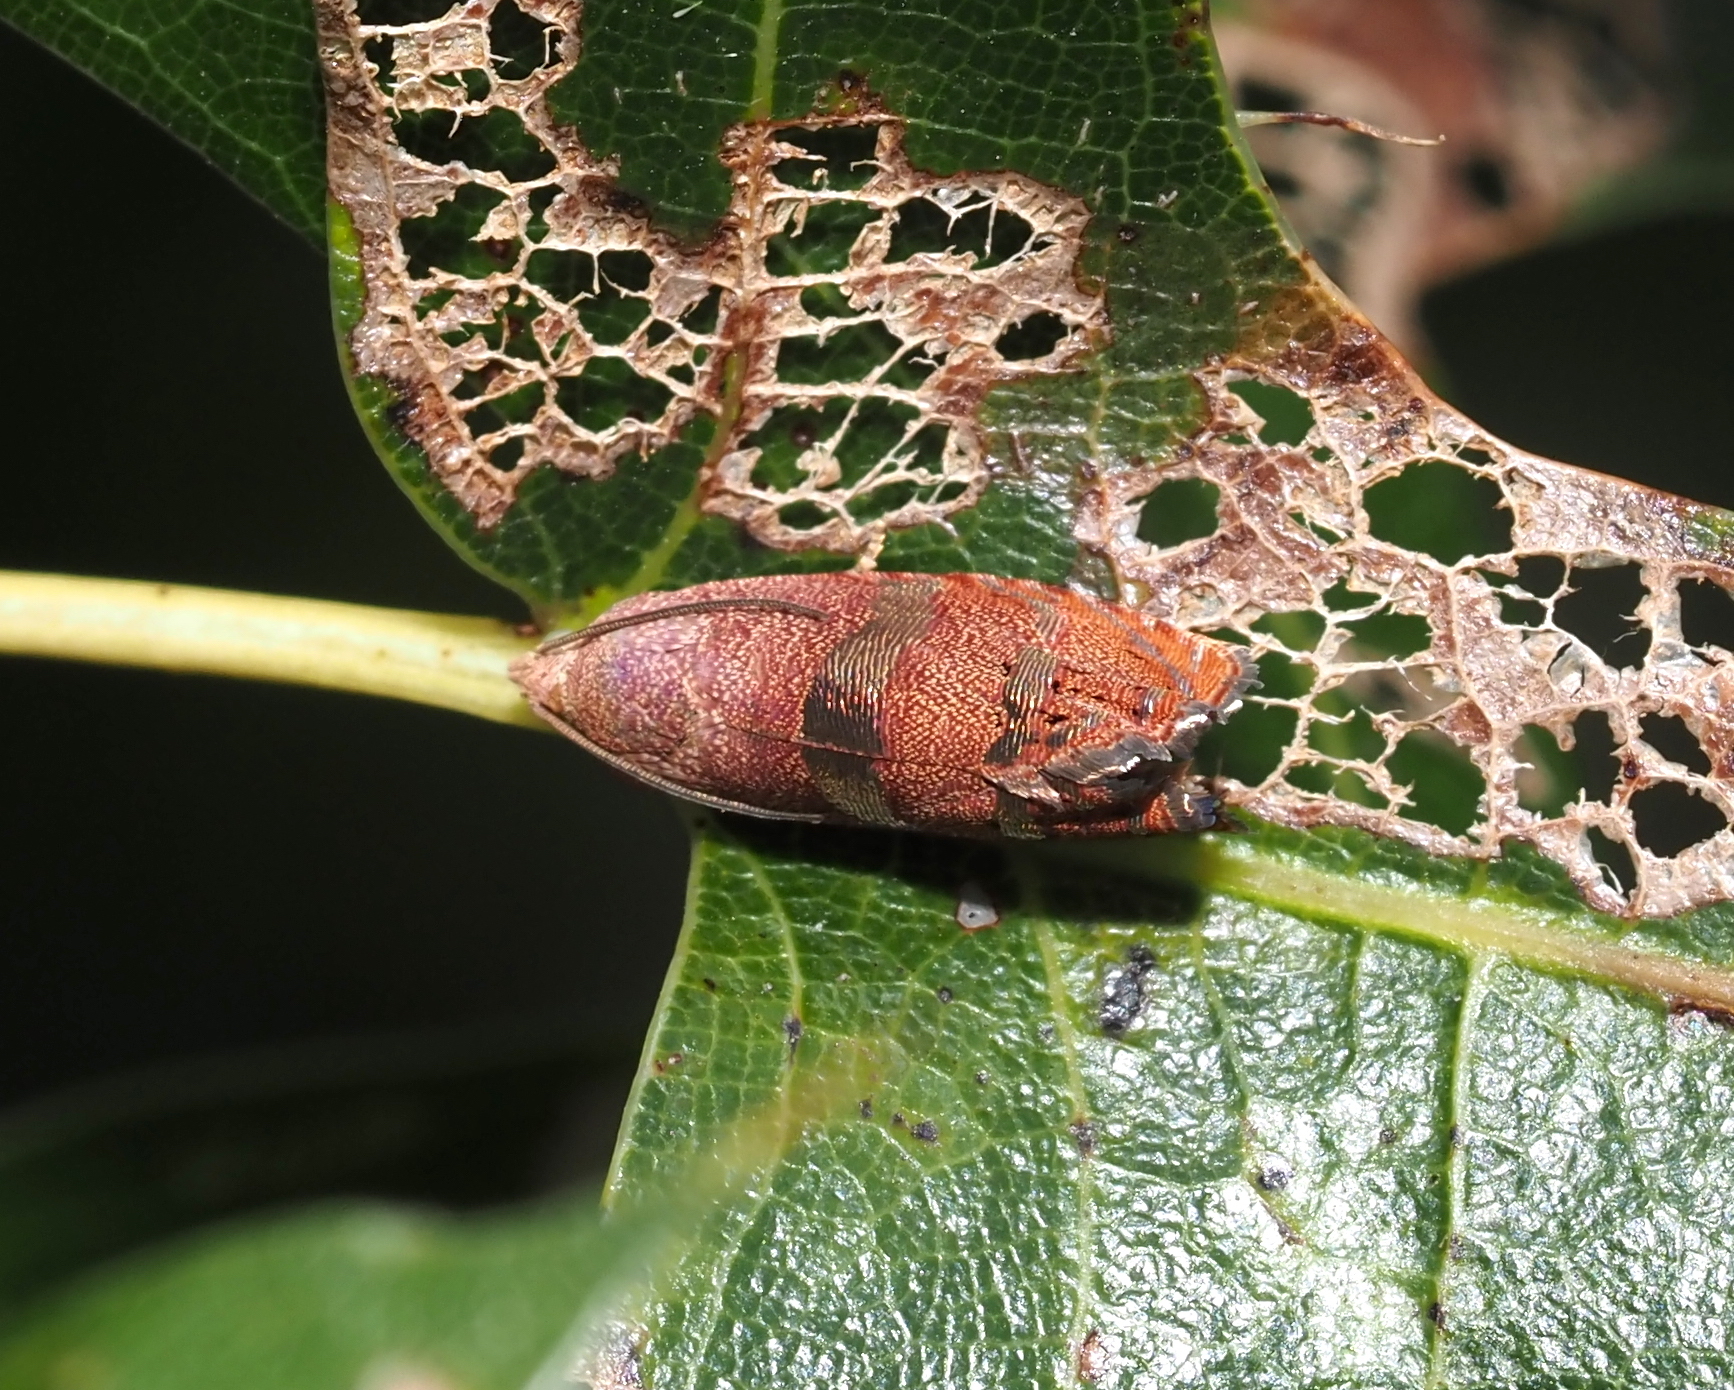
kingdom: Animalia
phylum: Arthropoda
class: Insecta
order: Lepidoptera
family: Tortricidae
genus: Cydia
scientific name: Cydia latiferreana
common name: Filbertworm moth
